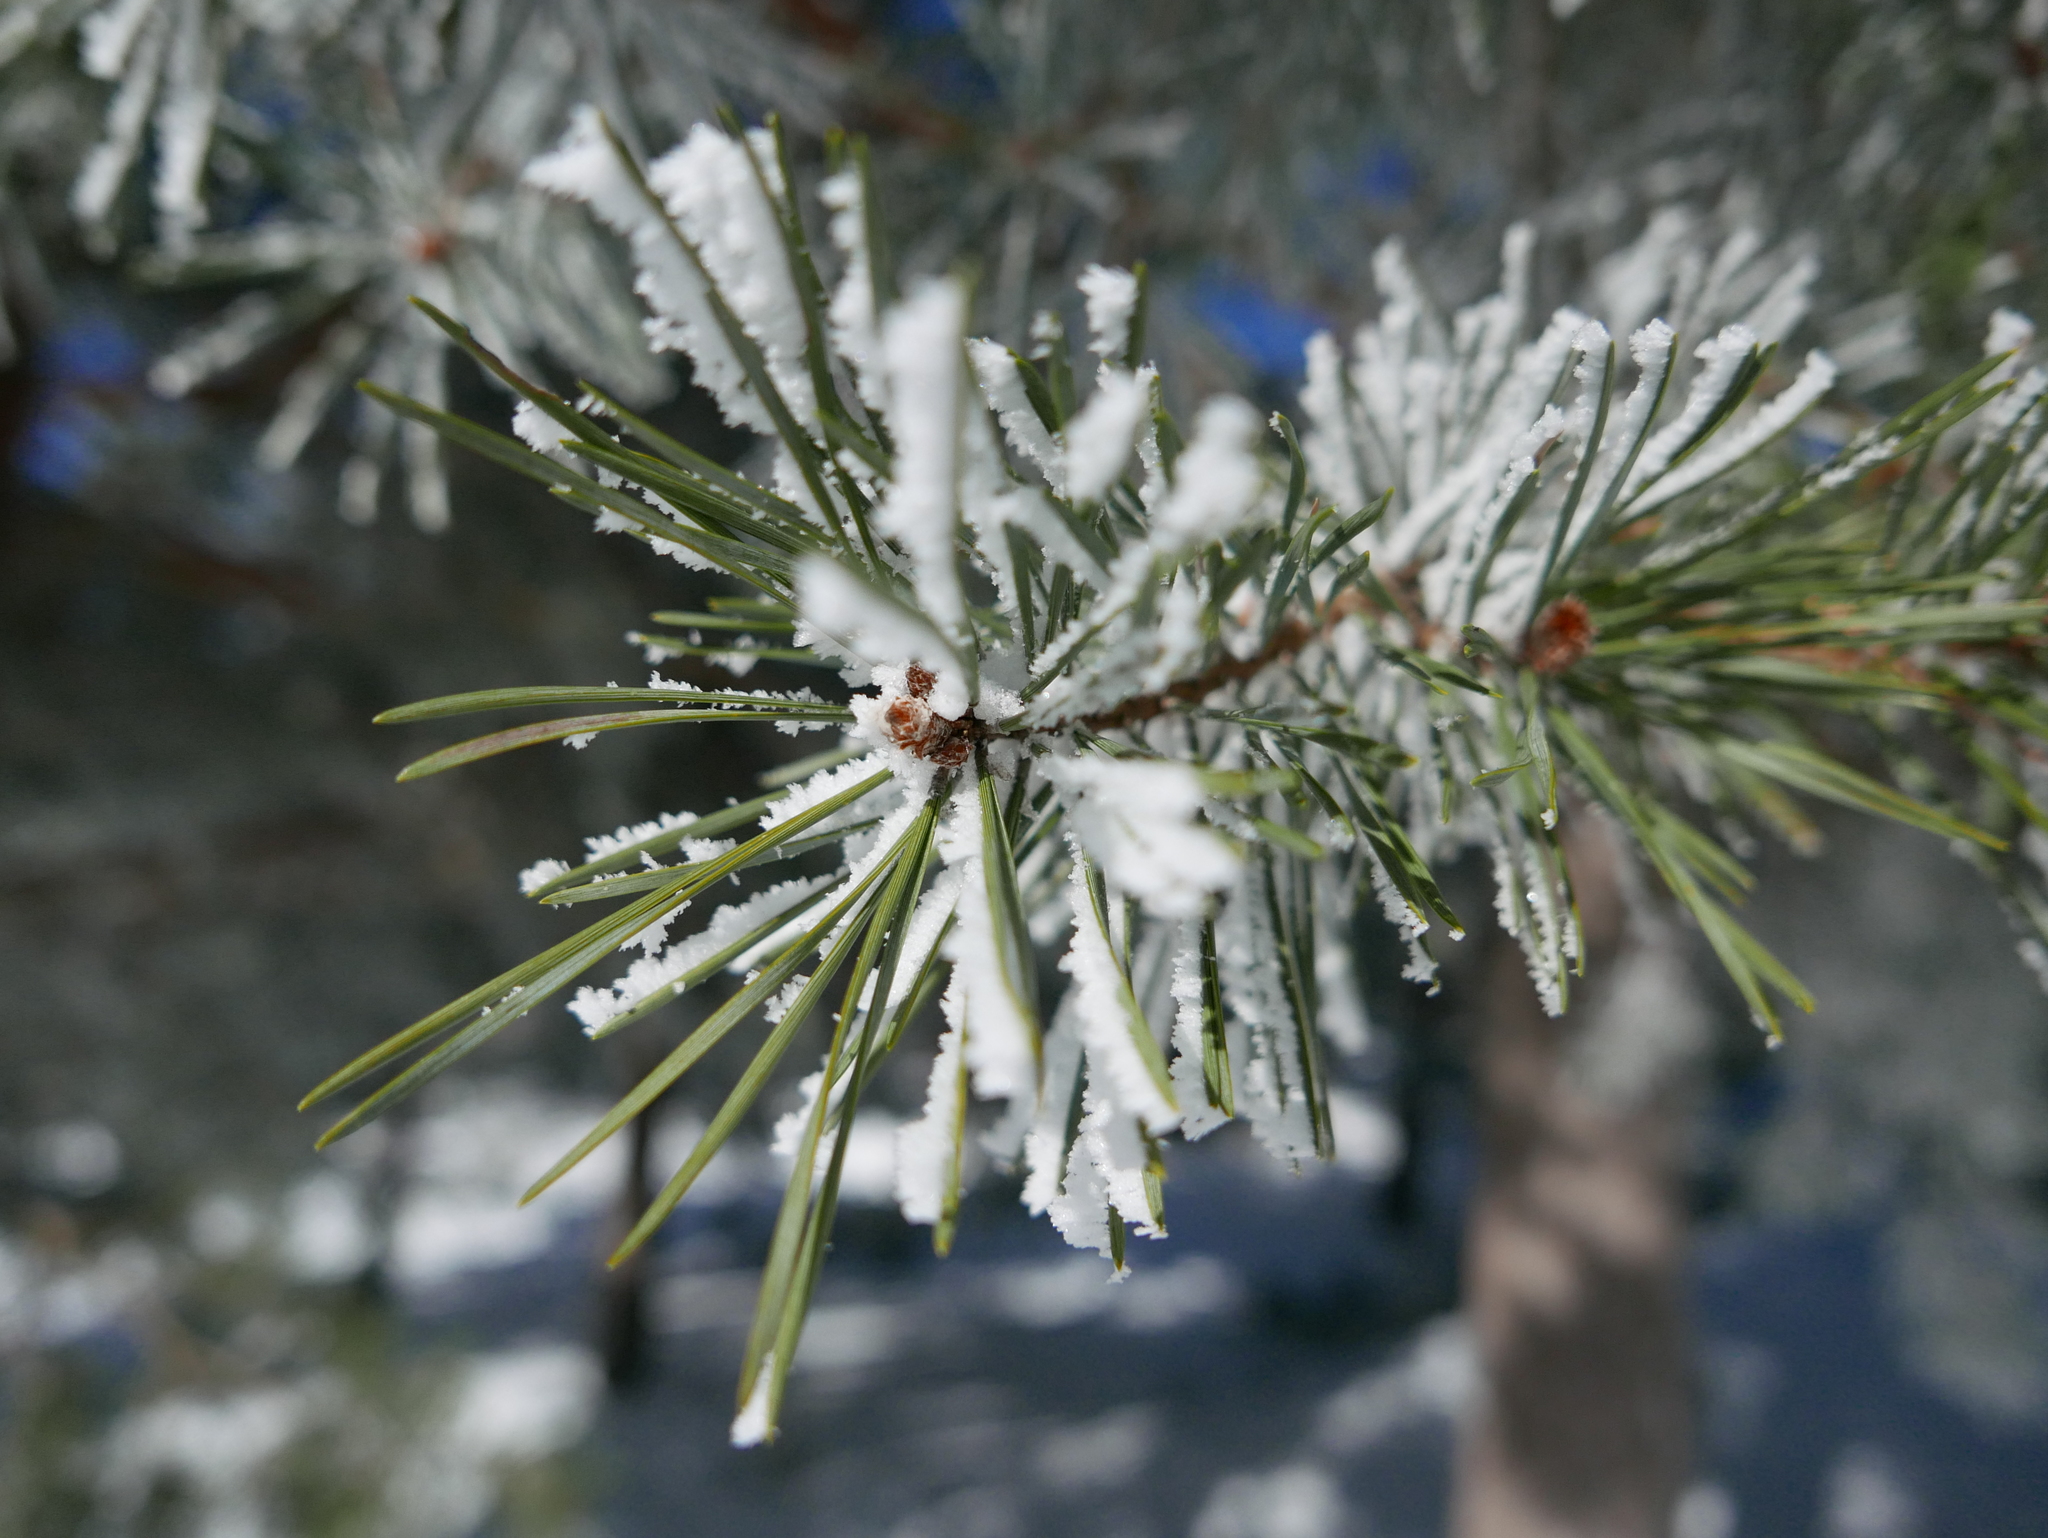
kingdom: Plantae
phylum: Tracheophyta
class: Pinopsida
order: Pinales
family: Pinaceae
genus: Pinus
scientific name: Pinus sylvestris
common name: Scots pine
